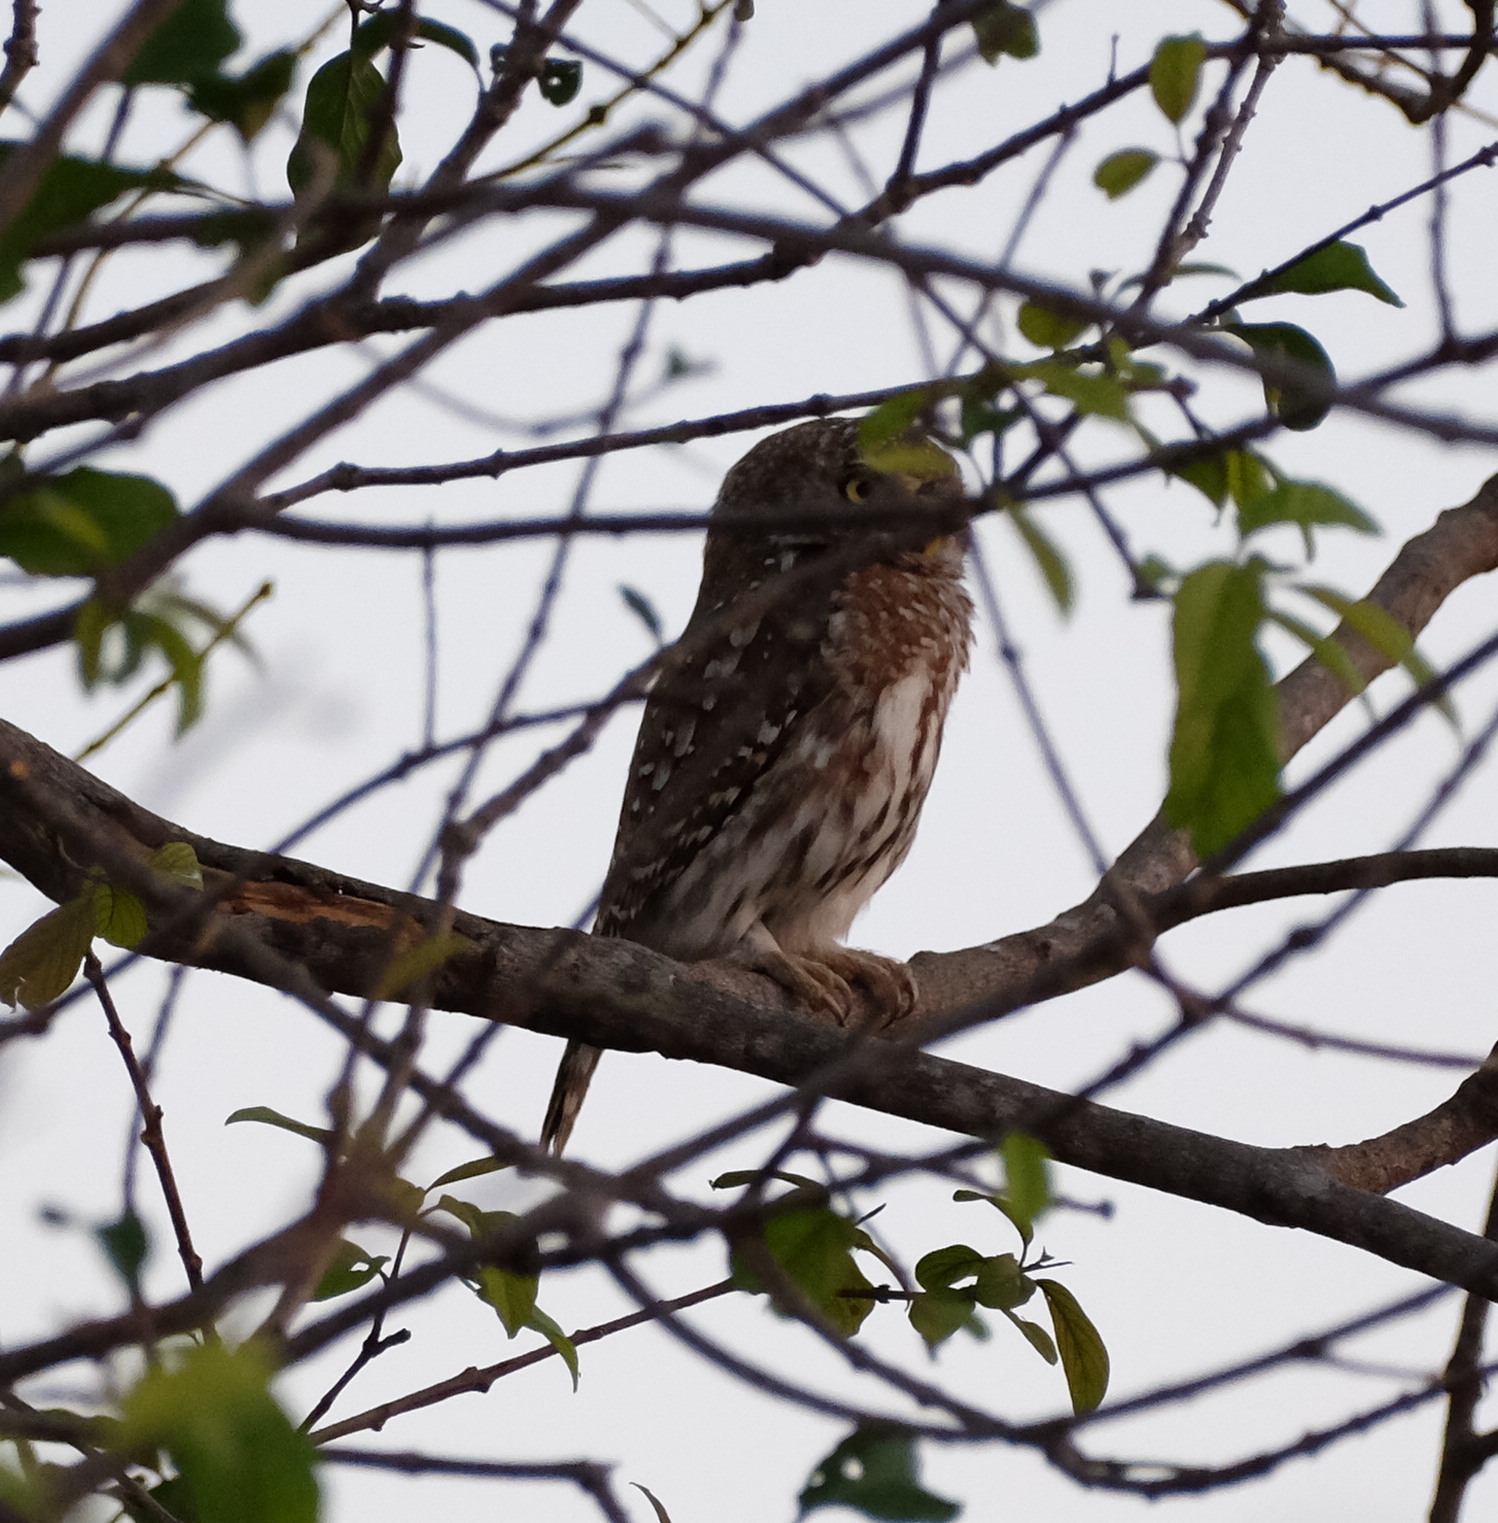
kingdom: Animalia
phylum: Chordata
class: Aves
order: Strigiformes
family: Strigidae
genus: Glaucidium
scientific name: Glaucidium perlatum
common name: Pearl-spotted owlet
